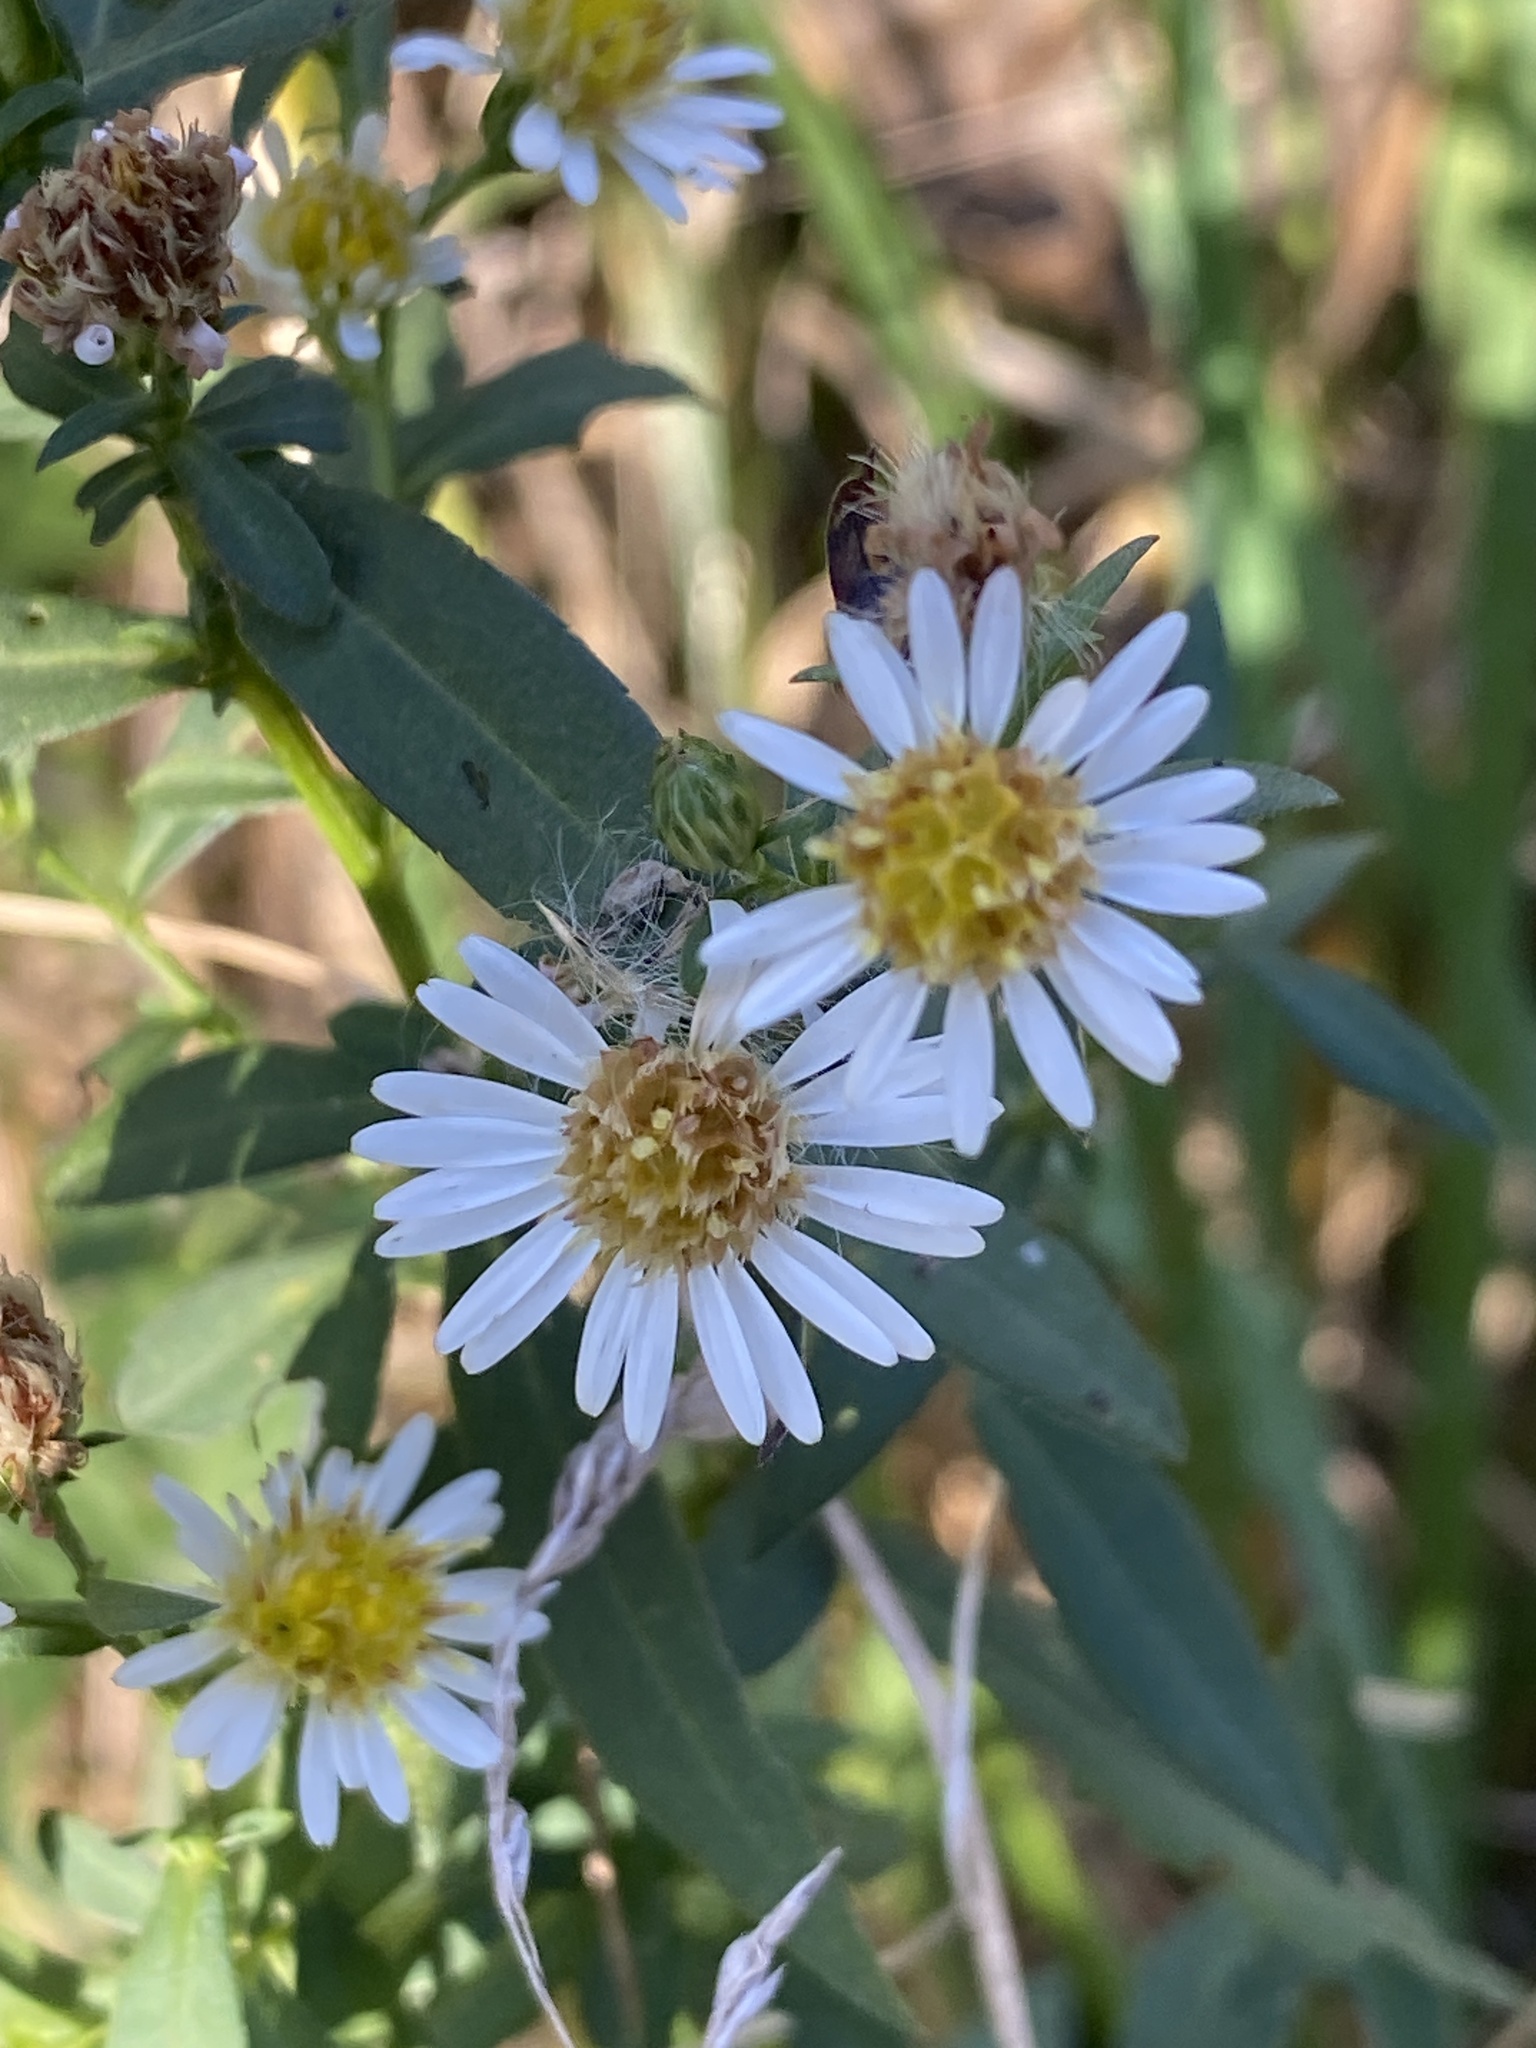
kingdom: Plantae
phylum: Tracheophyta
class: Magnoliopsida
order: Asterales
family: Asteraceae
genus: Symphyotrichum
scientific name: Symphyotrichum lanceolatum
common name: Panicled aster
